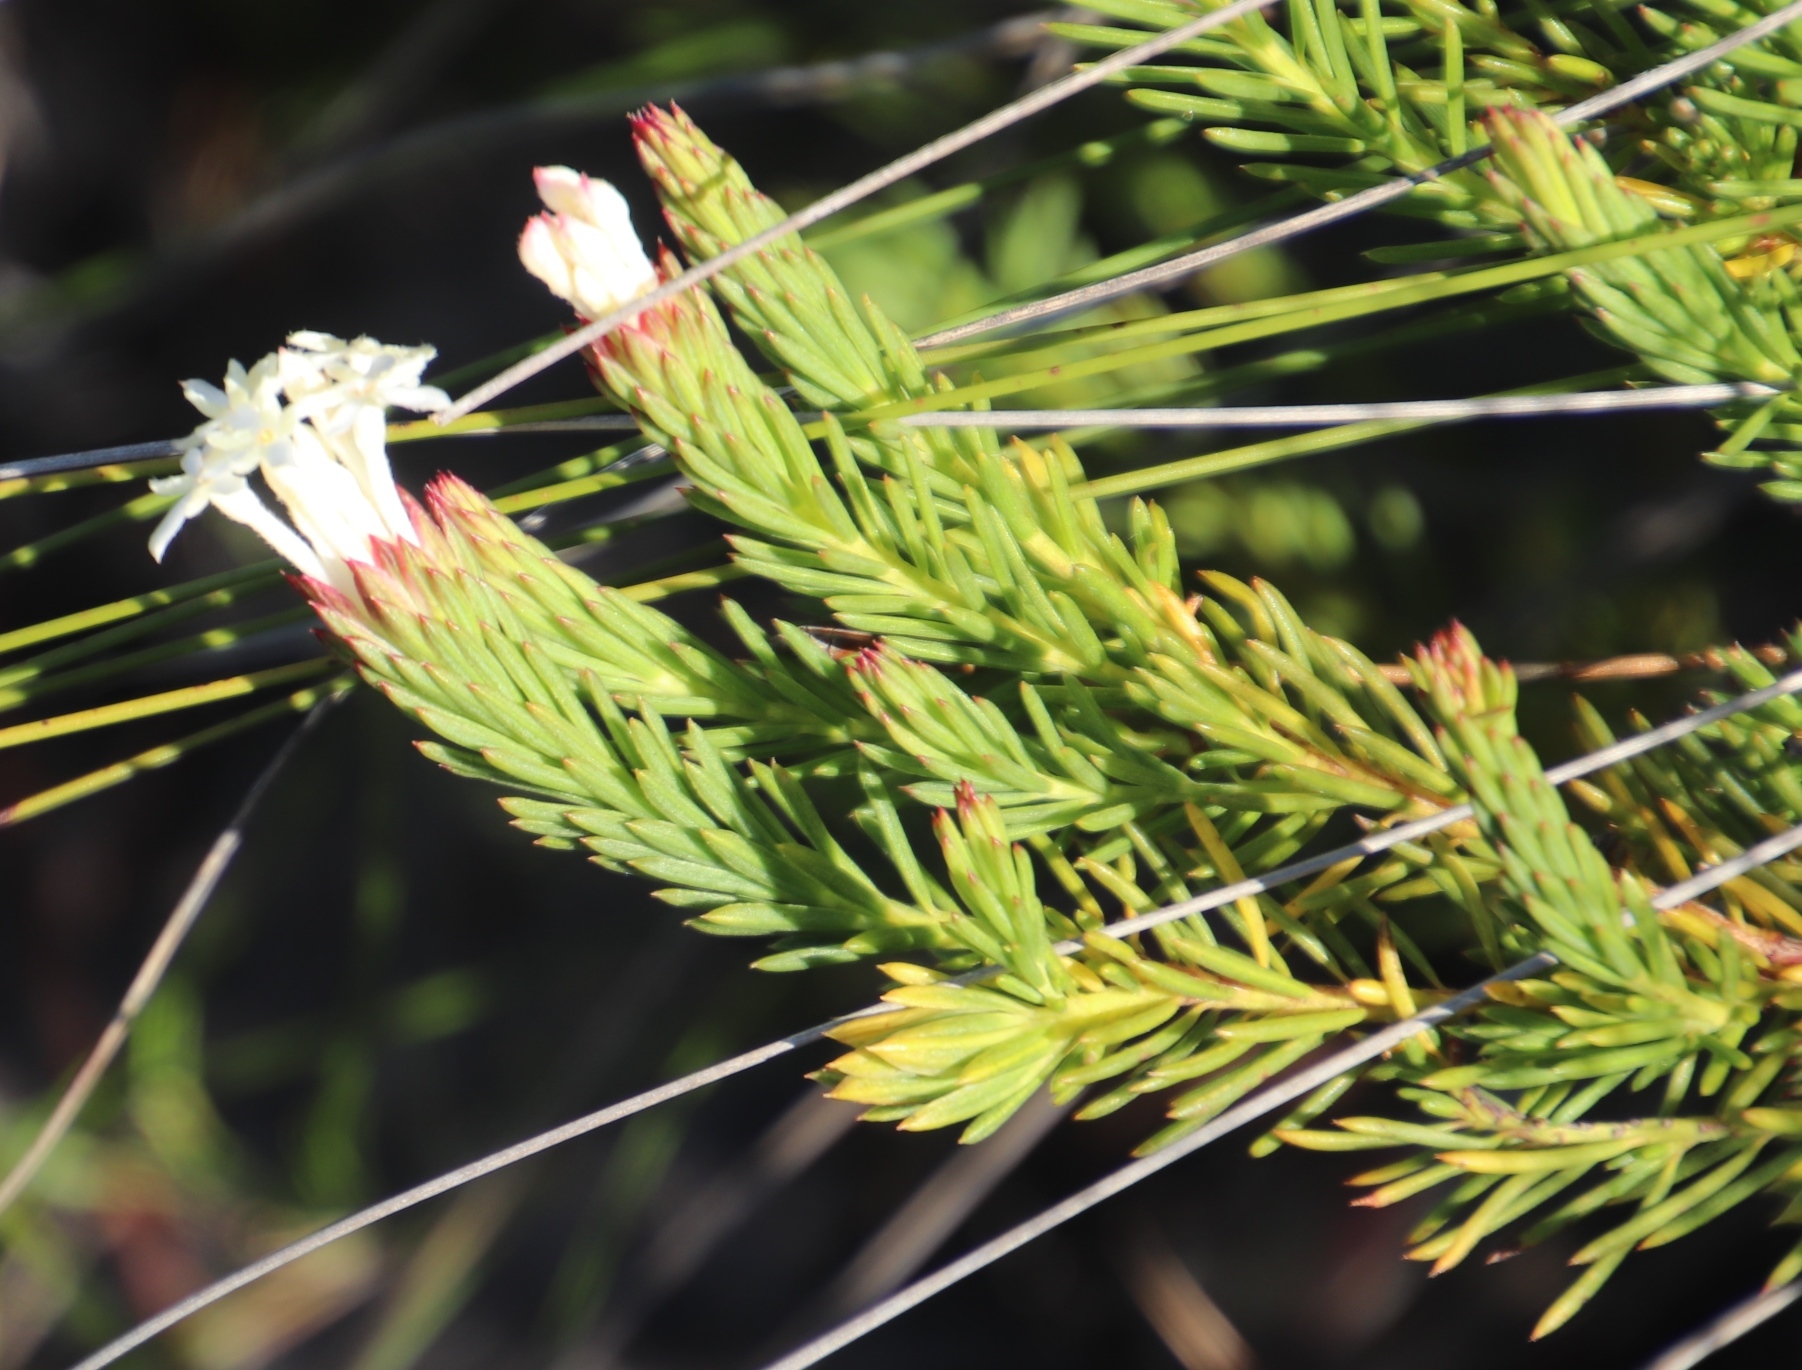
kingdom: Plantae
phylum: Tracheophyta
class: Magnoliopsida
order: Malvales
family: Thymelaeaceae
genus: Gnidia
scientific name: Gnidia pinifolia
